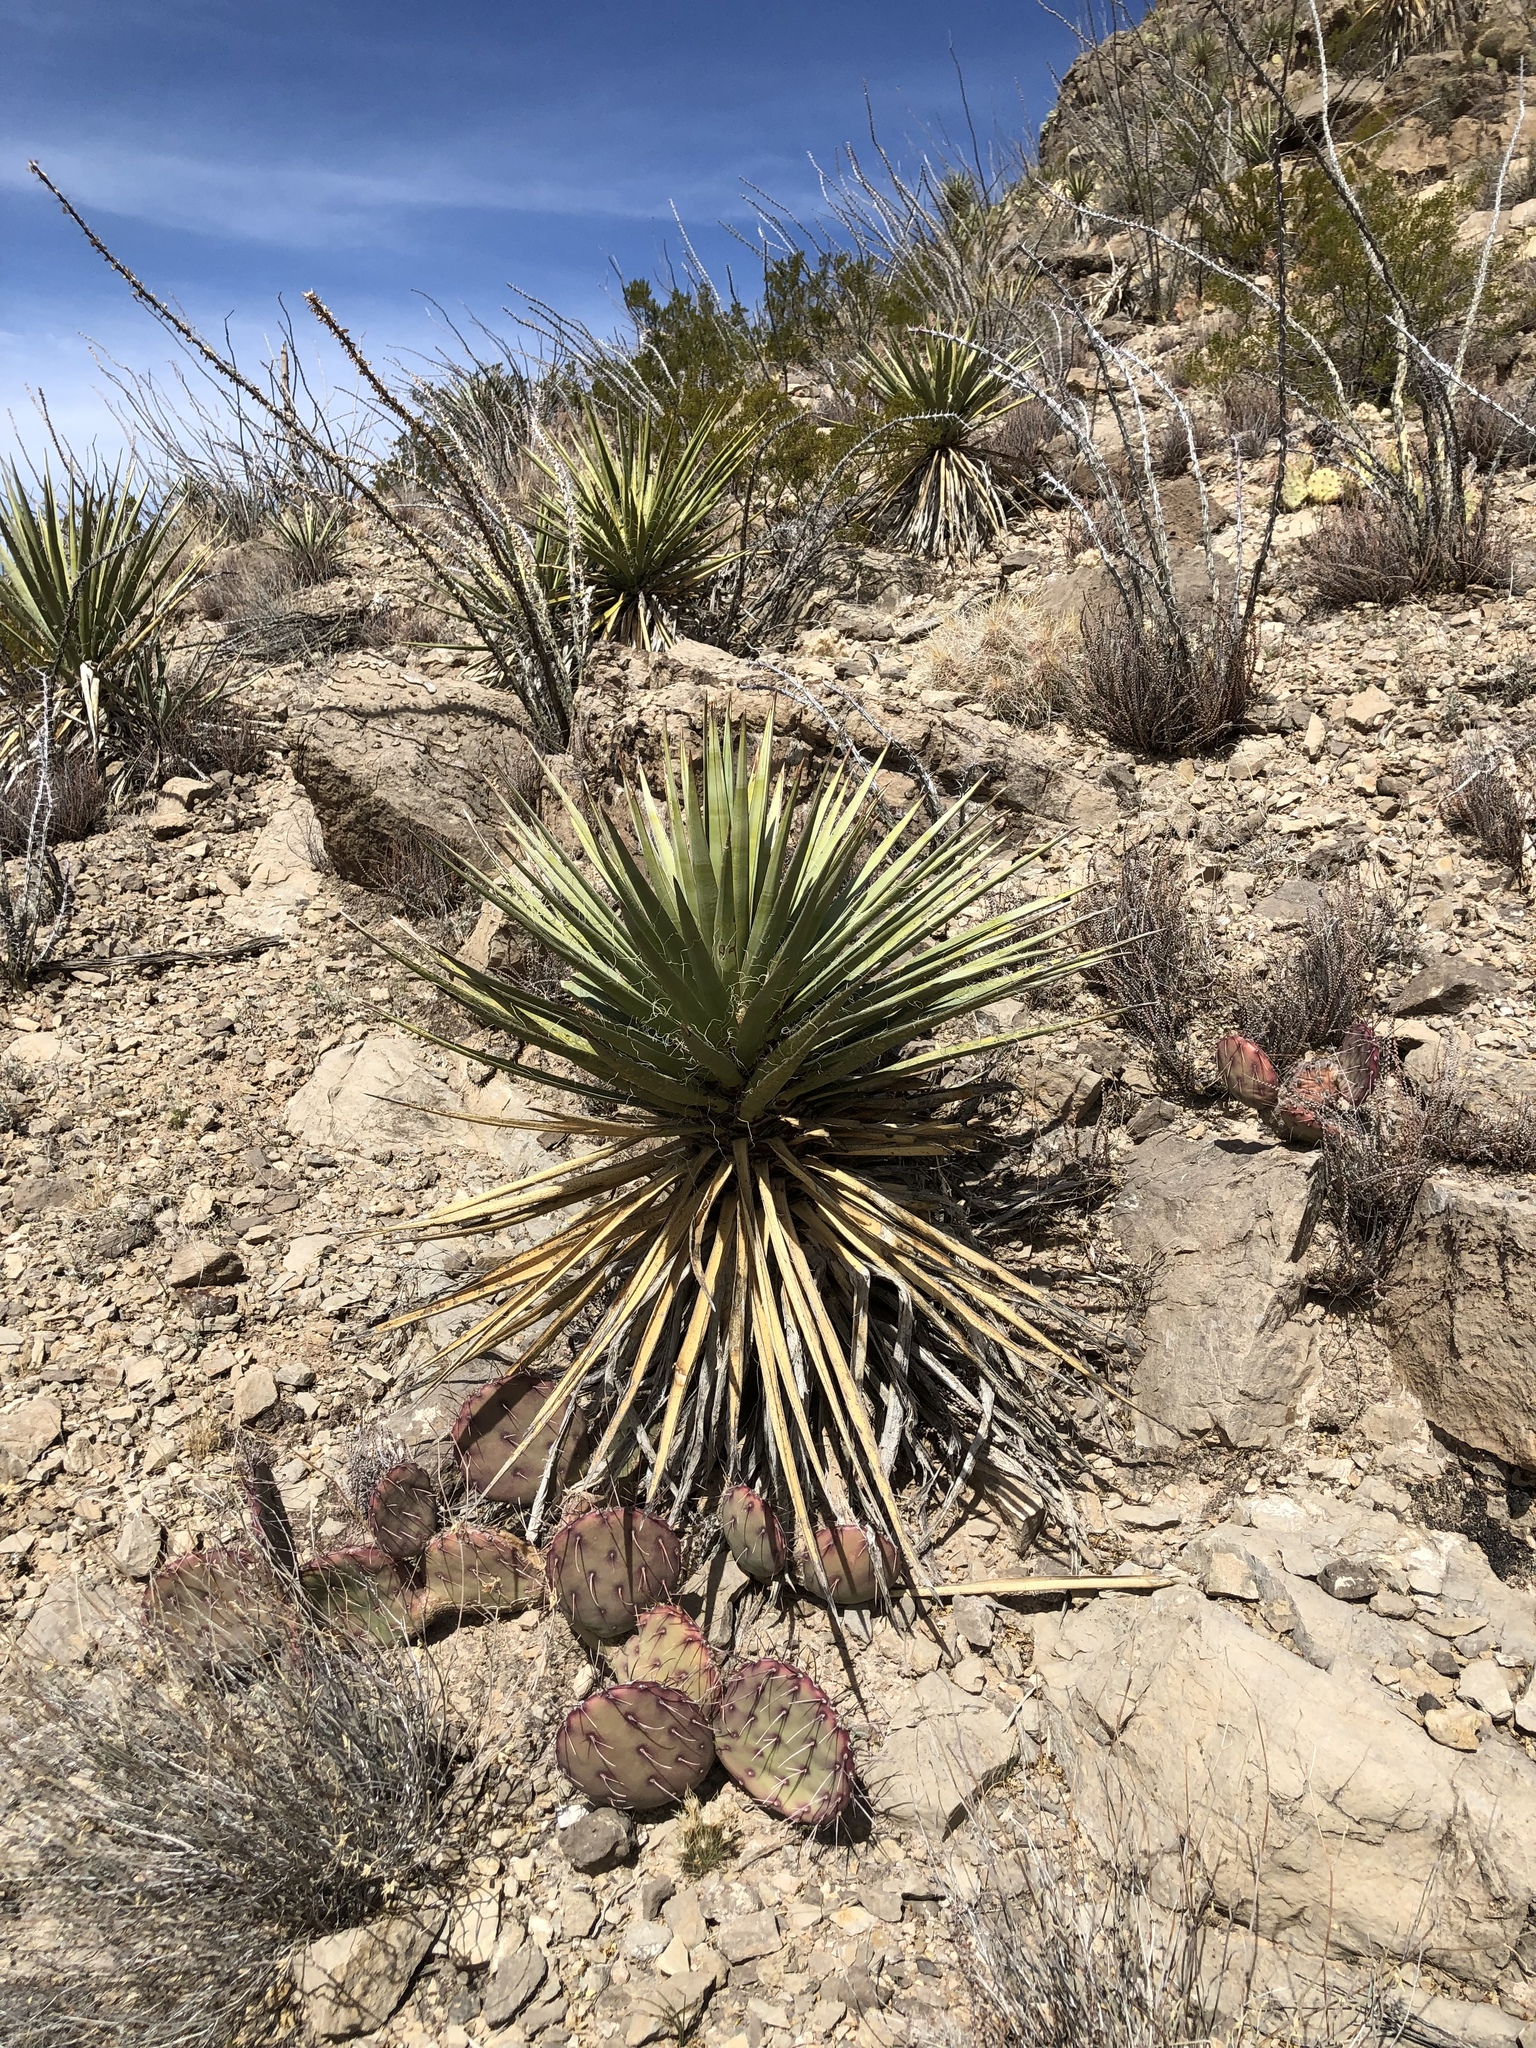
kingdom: Plantae
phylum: Tracheophyta
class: Liliopsida
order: Asparagales
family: Asparagaceae
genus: Yucca
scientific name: Yucca baccata
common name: Banana yucca
